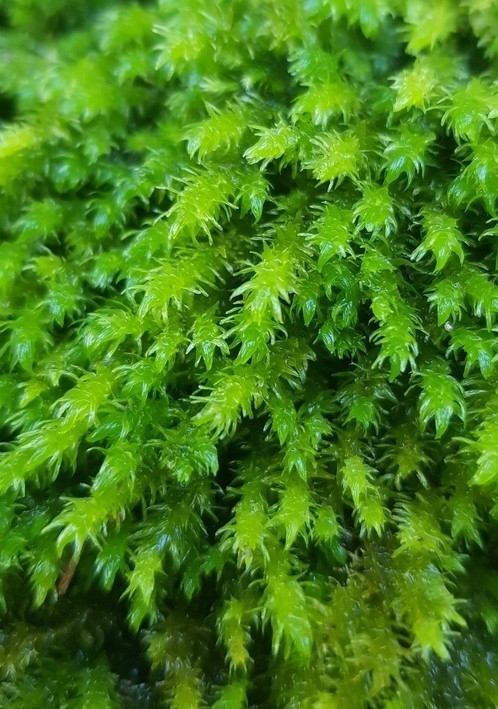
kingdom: Plantae
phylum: Bryophyta
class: Bryopsida
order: Hypnales
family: Anomodontaceae
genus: Anomodon
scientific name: Anomodon viticulosus
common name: Tall anomodon
